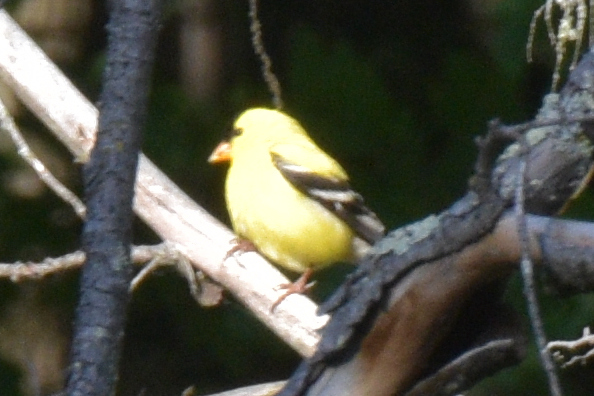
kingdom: Animalia
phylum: Chordata
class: Aves
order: Passeriformes
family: Fringillidae
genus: Spinus
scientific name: Spinus tristis
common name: American goldfinch
